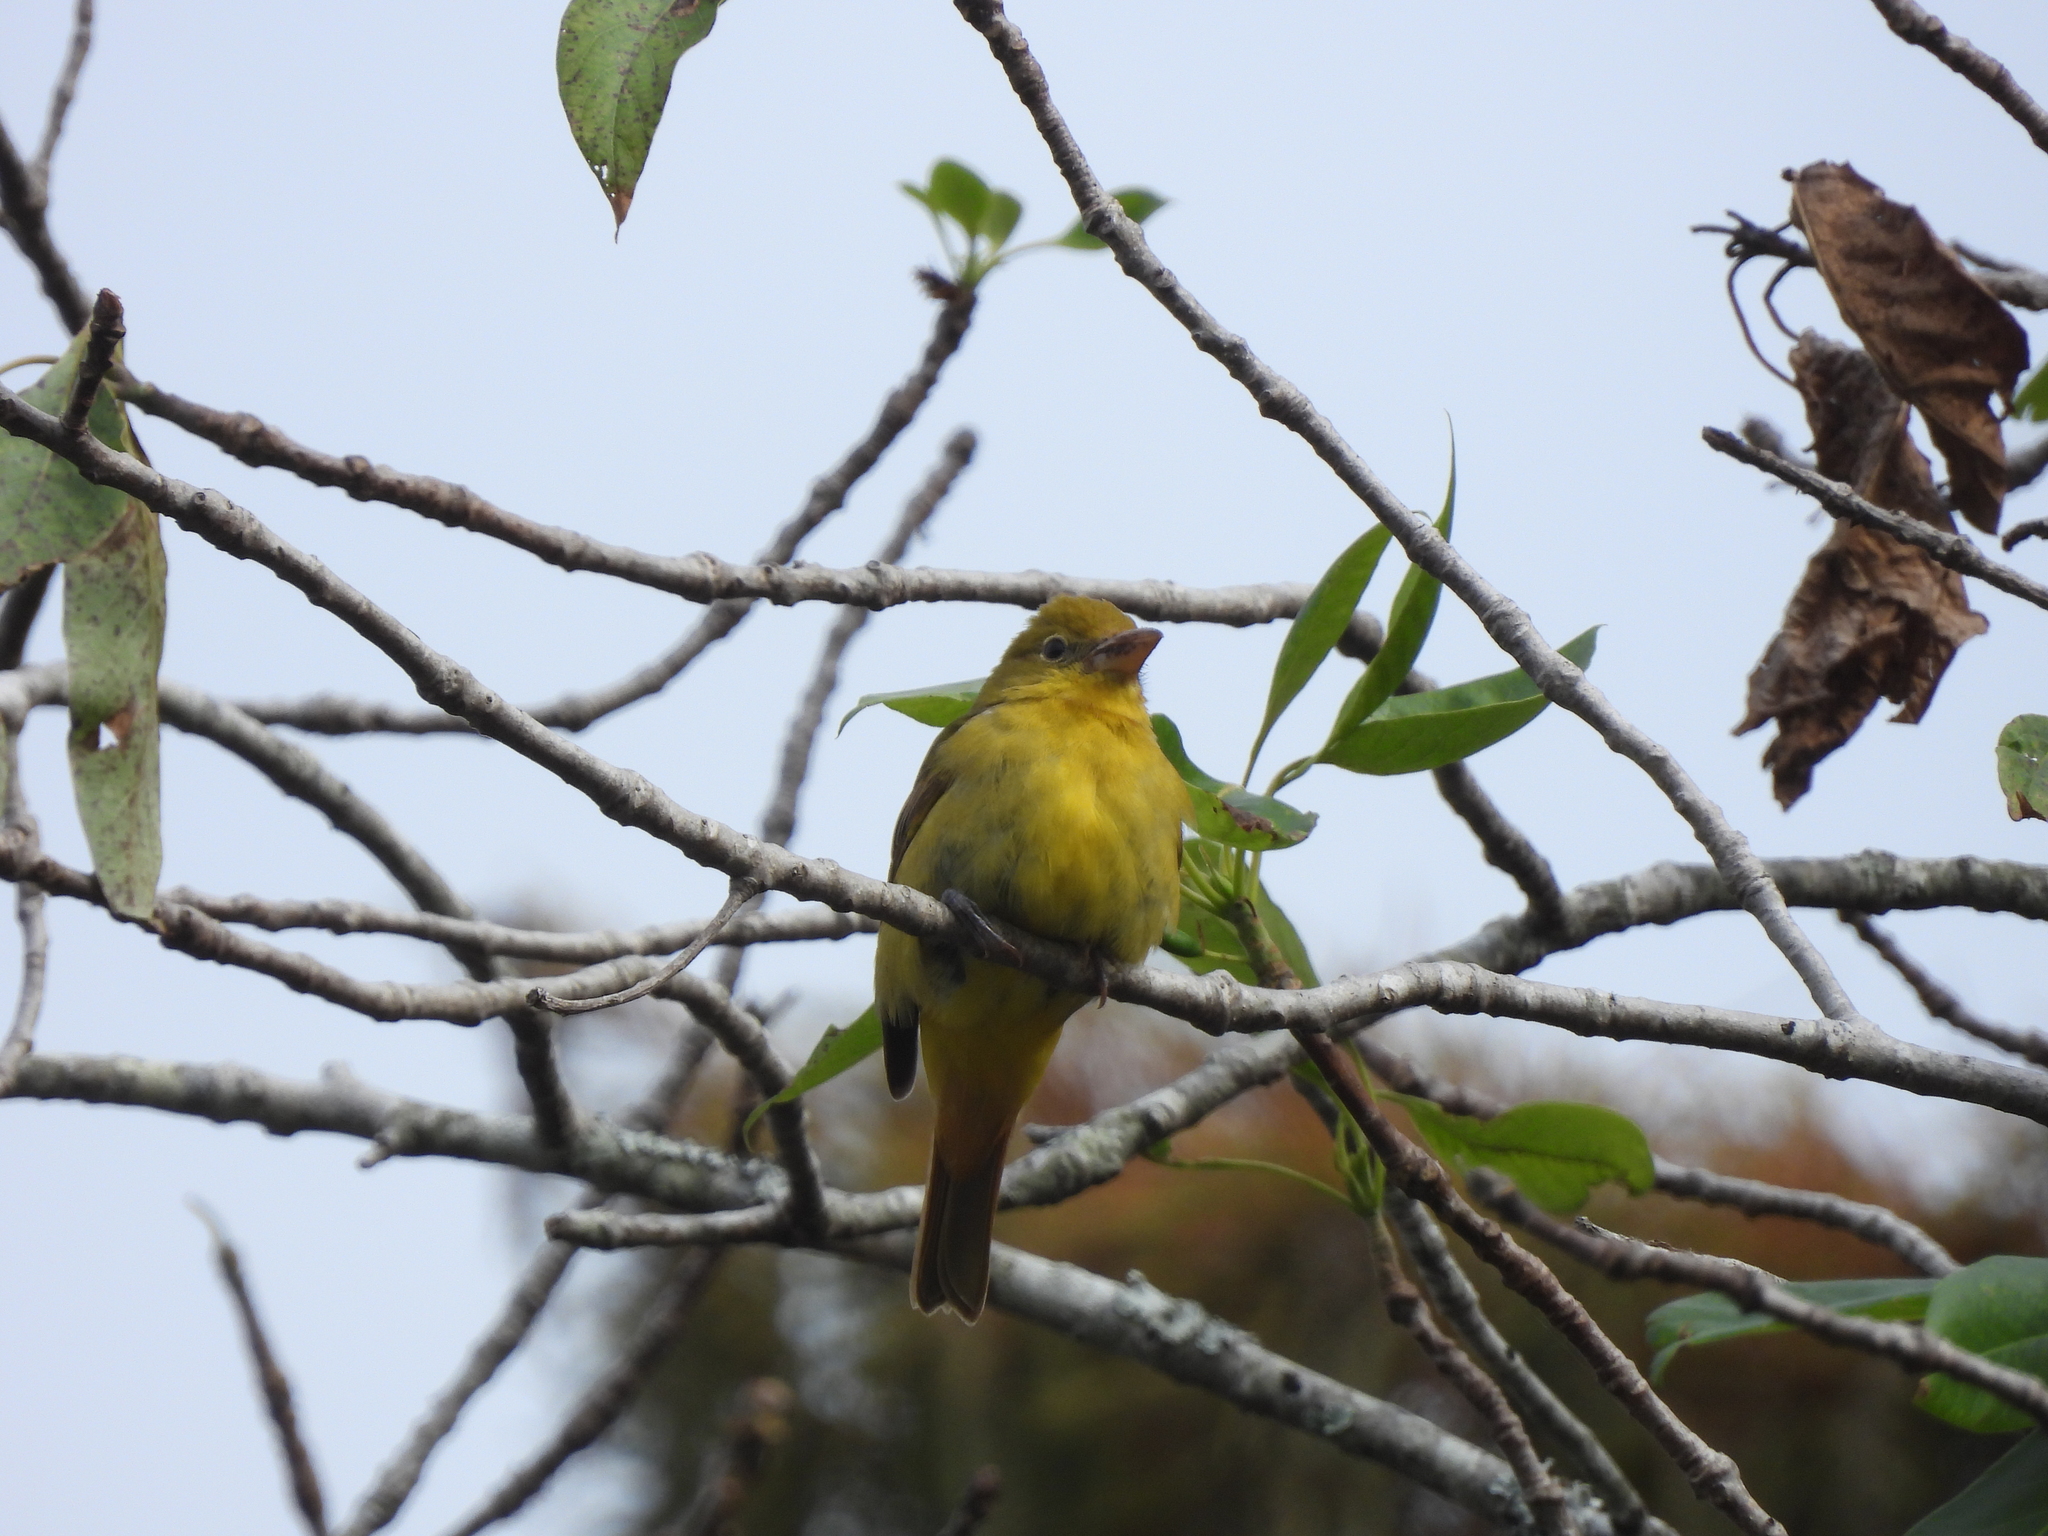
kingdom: Animalia
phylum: Chordata
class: Aves
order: Passeriformes
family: Cardinalidae
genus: Piranga
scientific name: Piranga rubra
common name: Summer tanager
